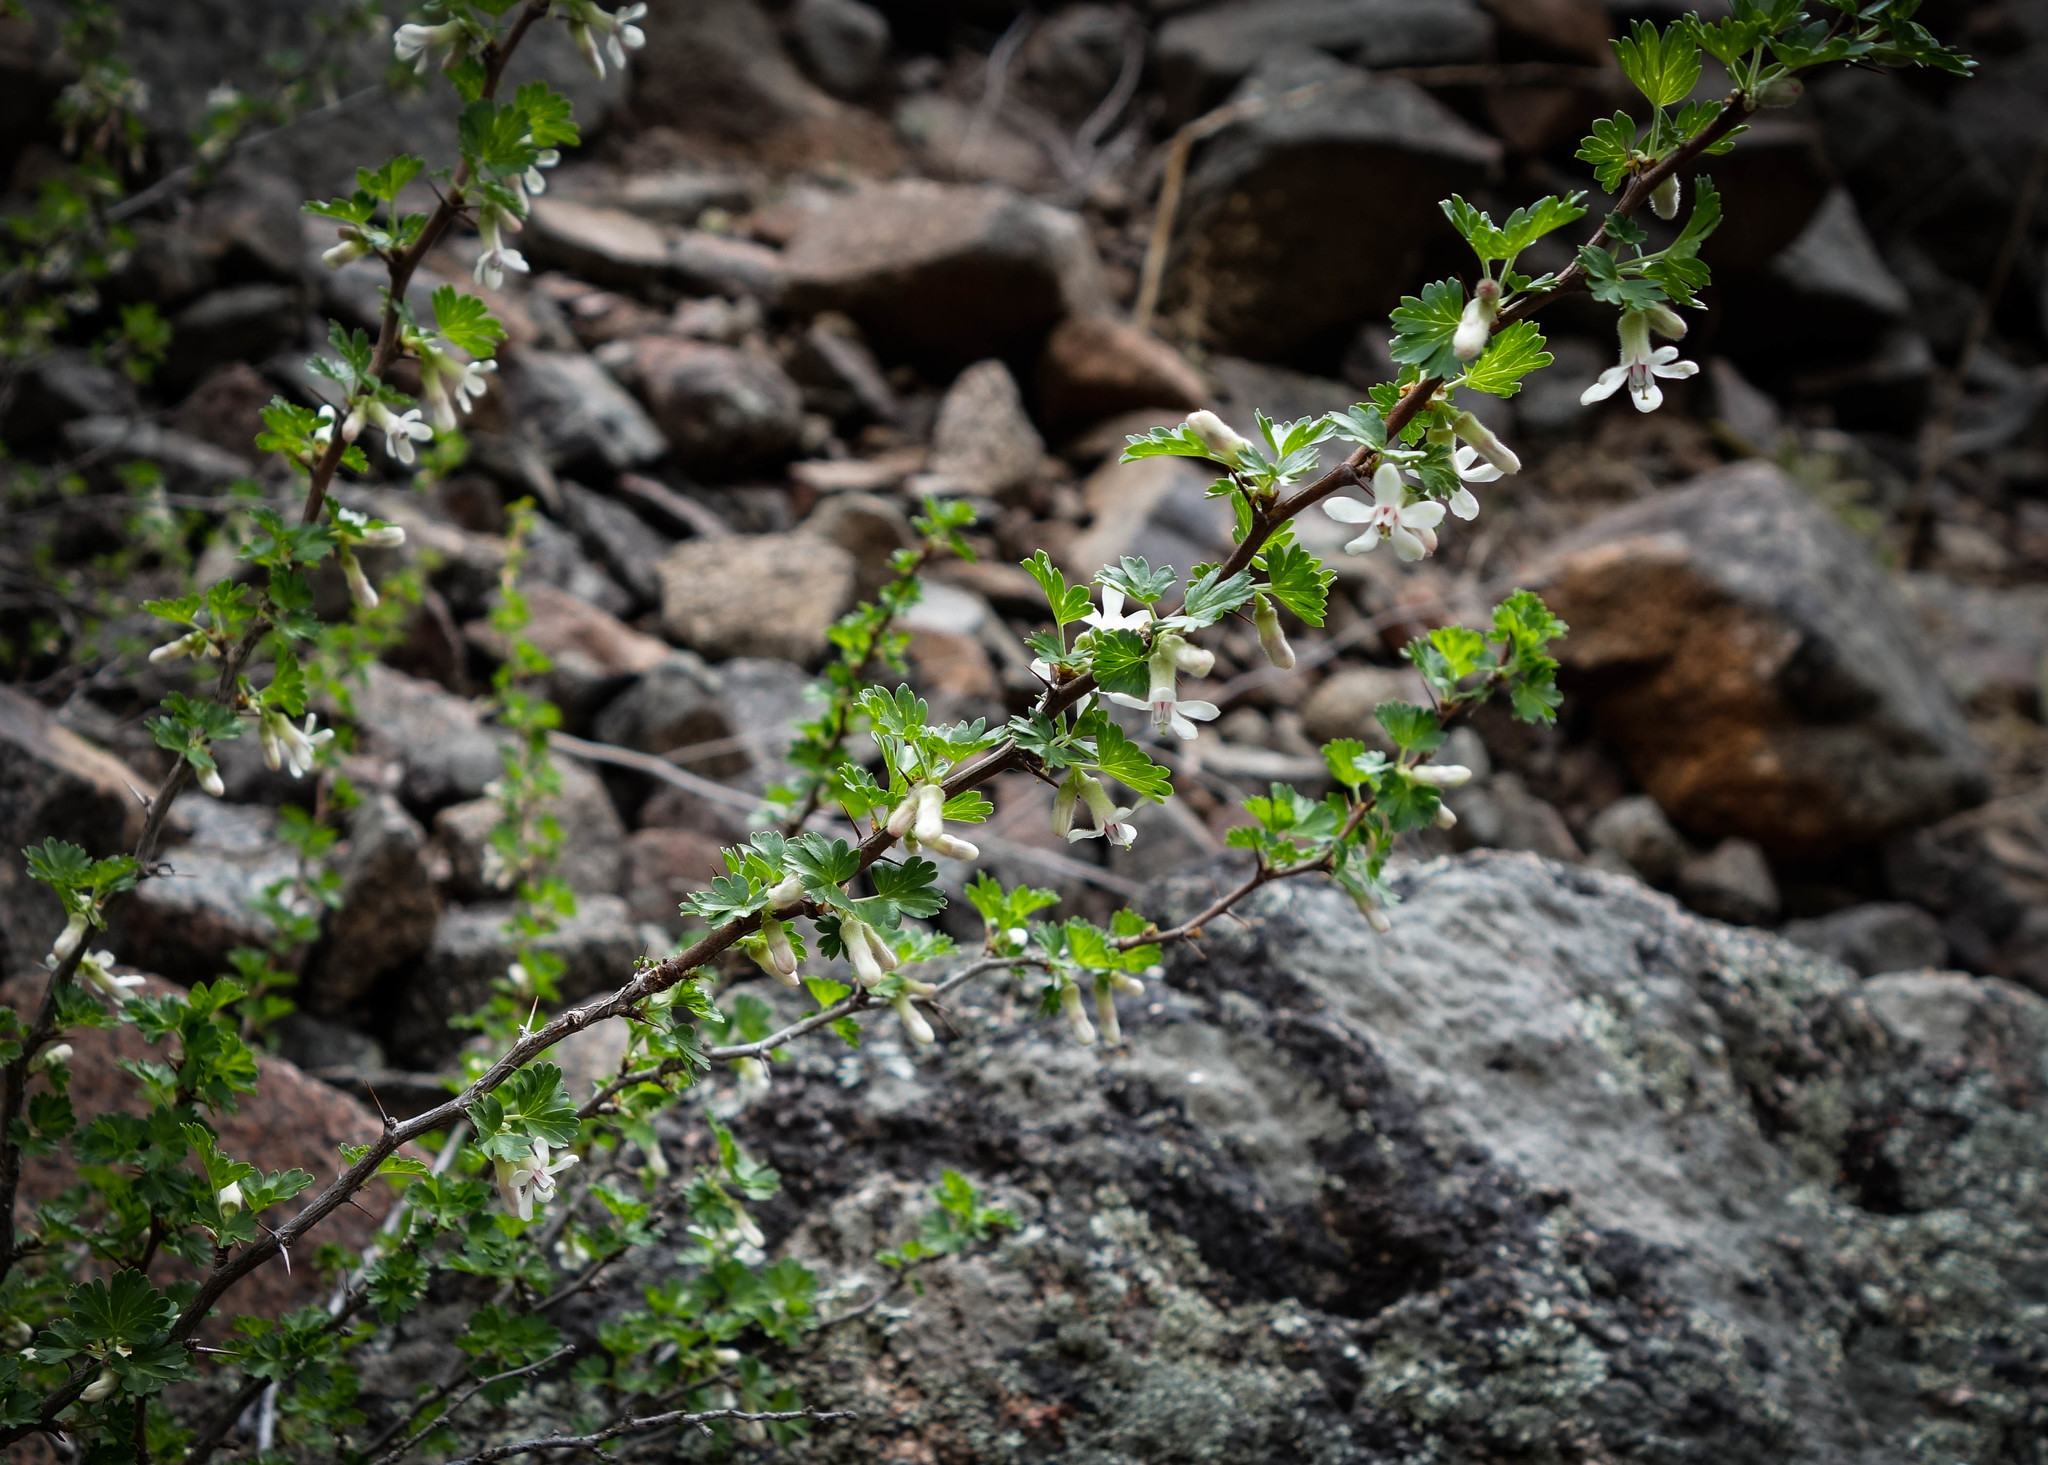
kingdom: Plantae
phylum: Tracheophyta
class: Magnoliopsida
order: Saxifragales
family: Grossulariaceae
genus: Ribes
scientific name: Ribes leptanthum
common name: Trumpet gooseberry
